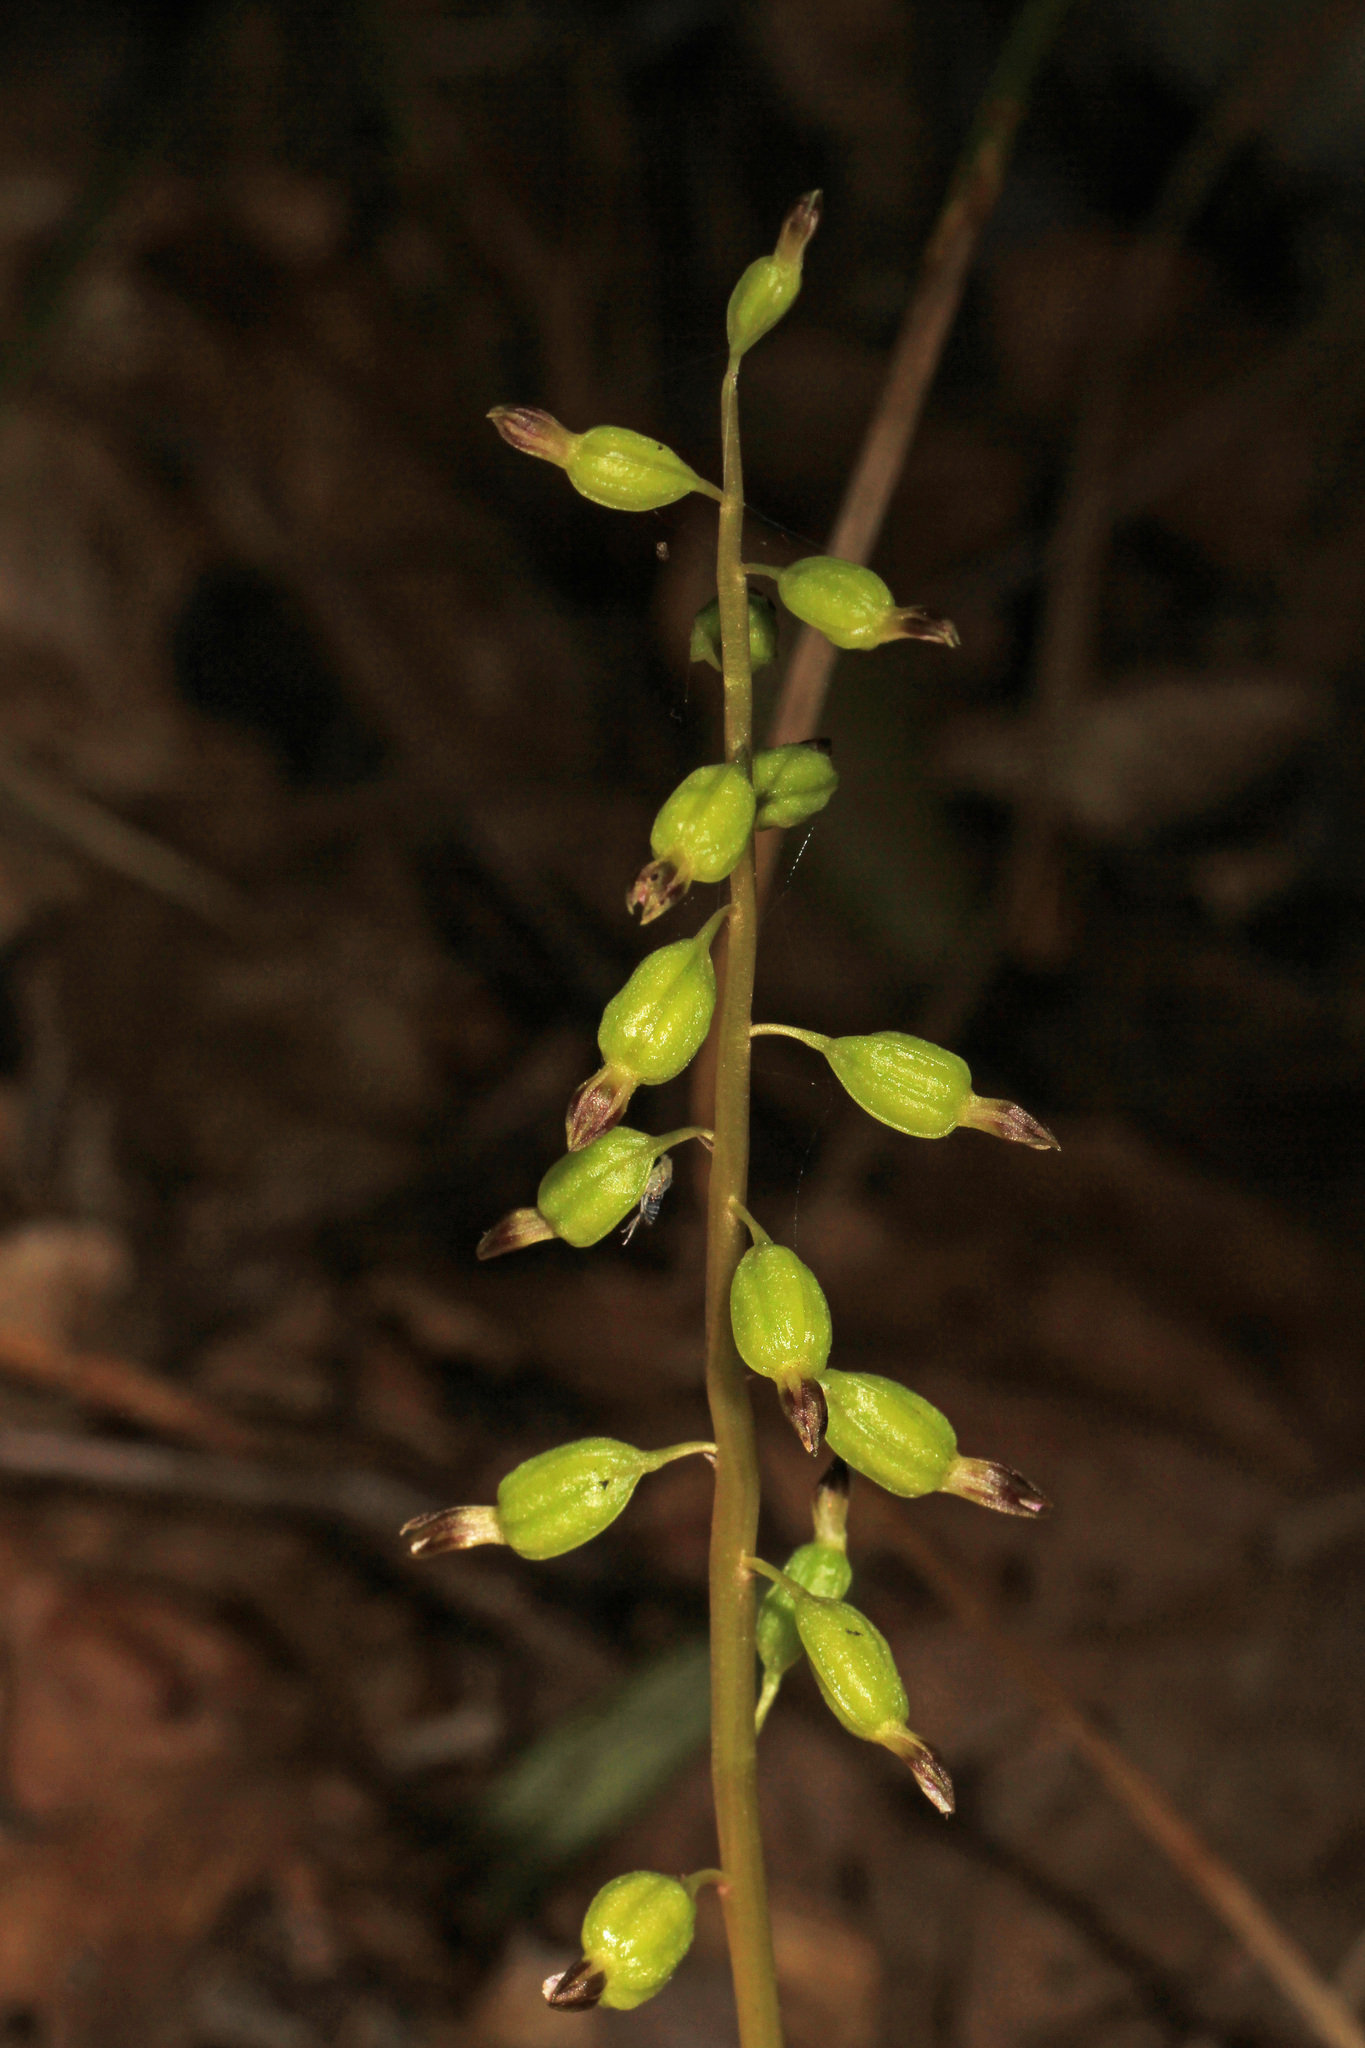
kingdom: Plantae
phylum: Tracheophyta
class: Liliopsida
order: Asparagales
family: Orchidaceae
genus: Corallorhiza
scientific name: Corallorhiza odontorhiza
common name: Autumn coralroot
